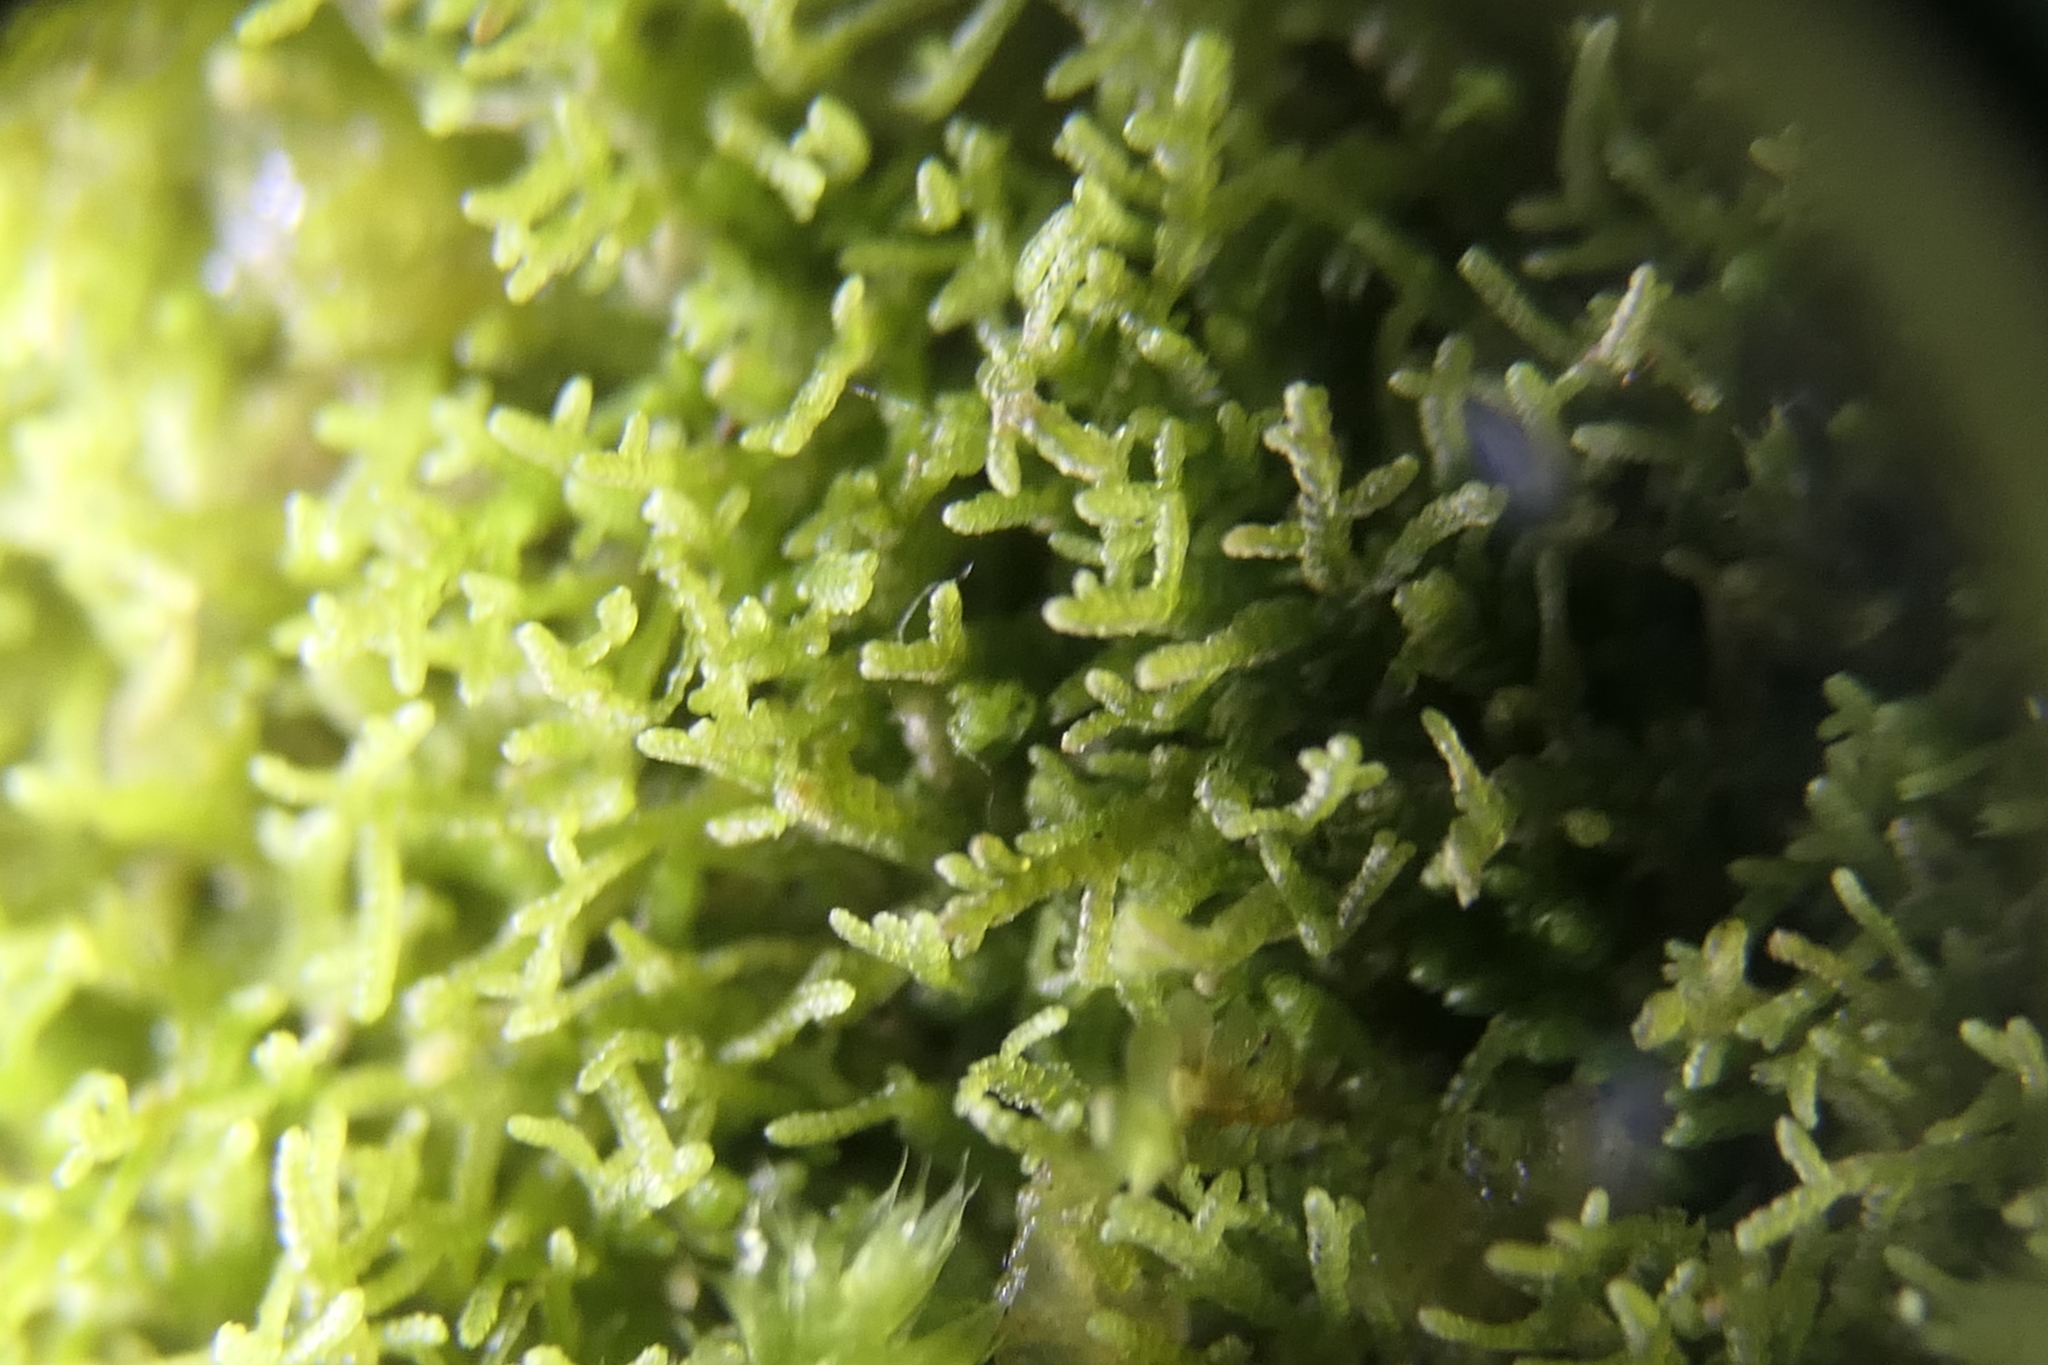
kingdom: Plantae
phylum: Marchantiophyta
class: Jungermanniopsida
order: Jungermanniales
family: Lepidoziaceae
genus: Lepidozia
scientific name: Lepidozia reptans
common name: Creeping fingerwort
